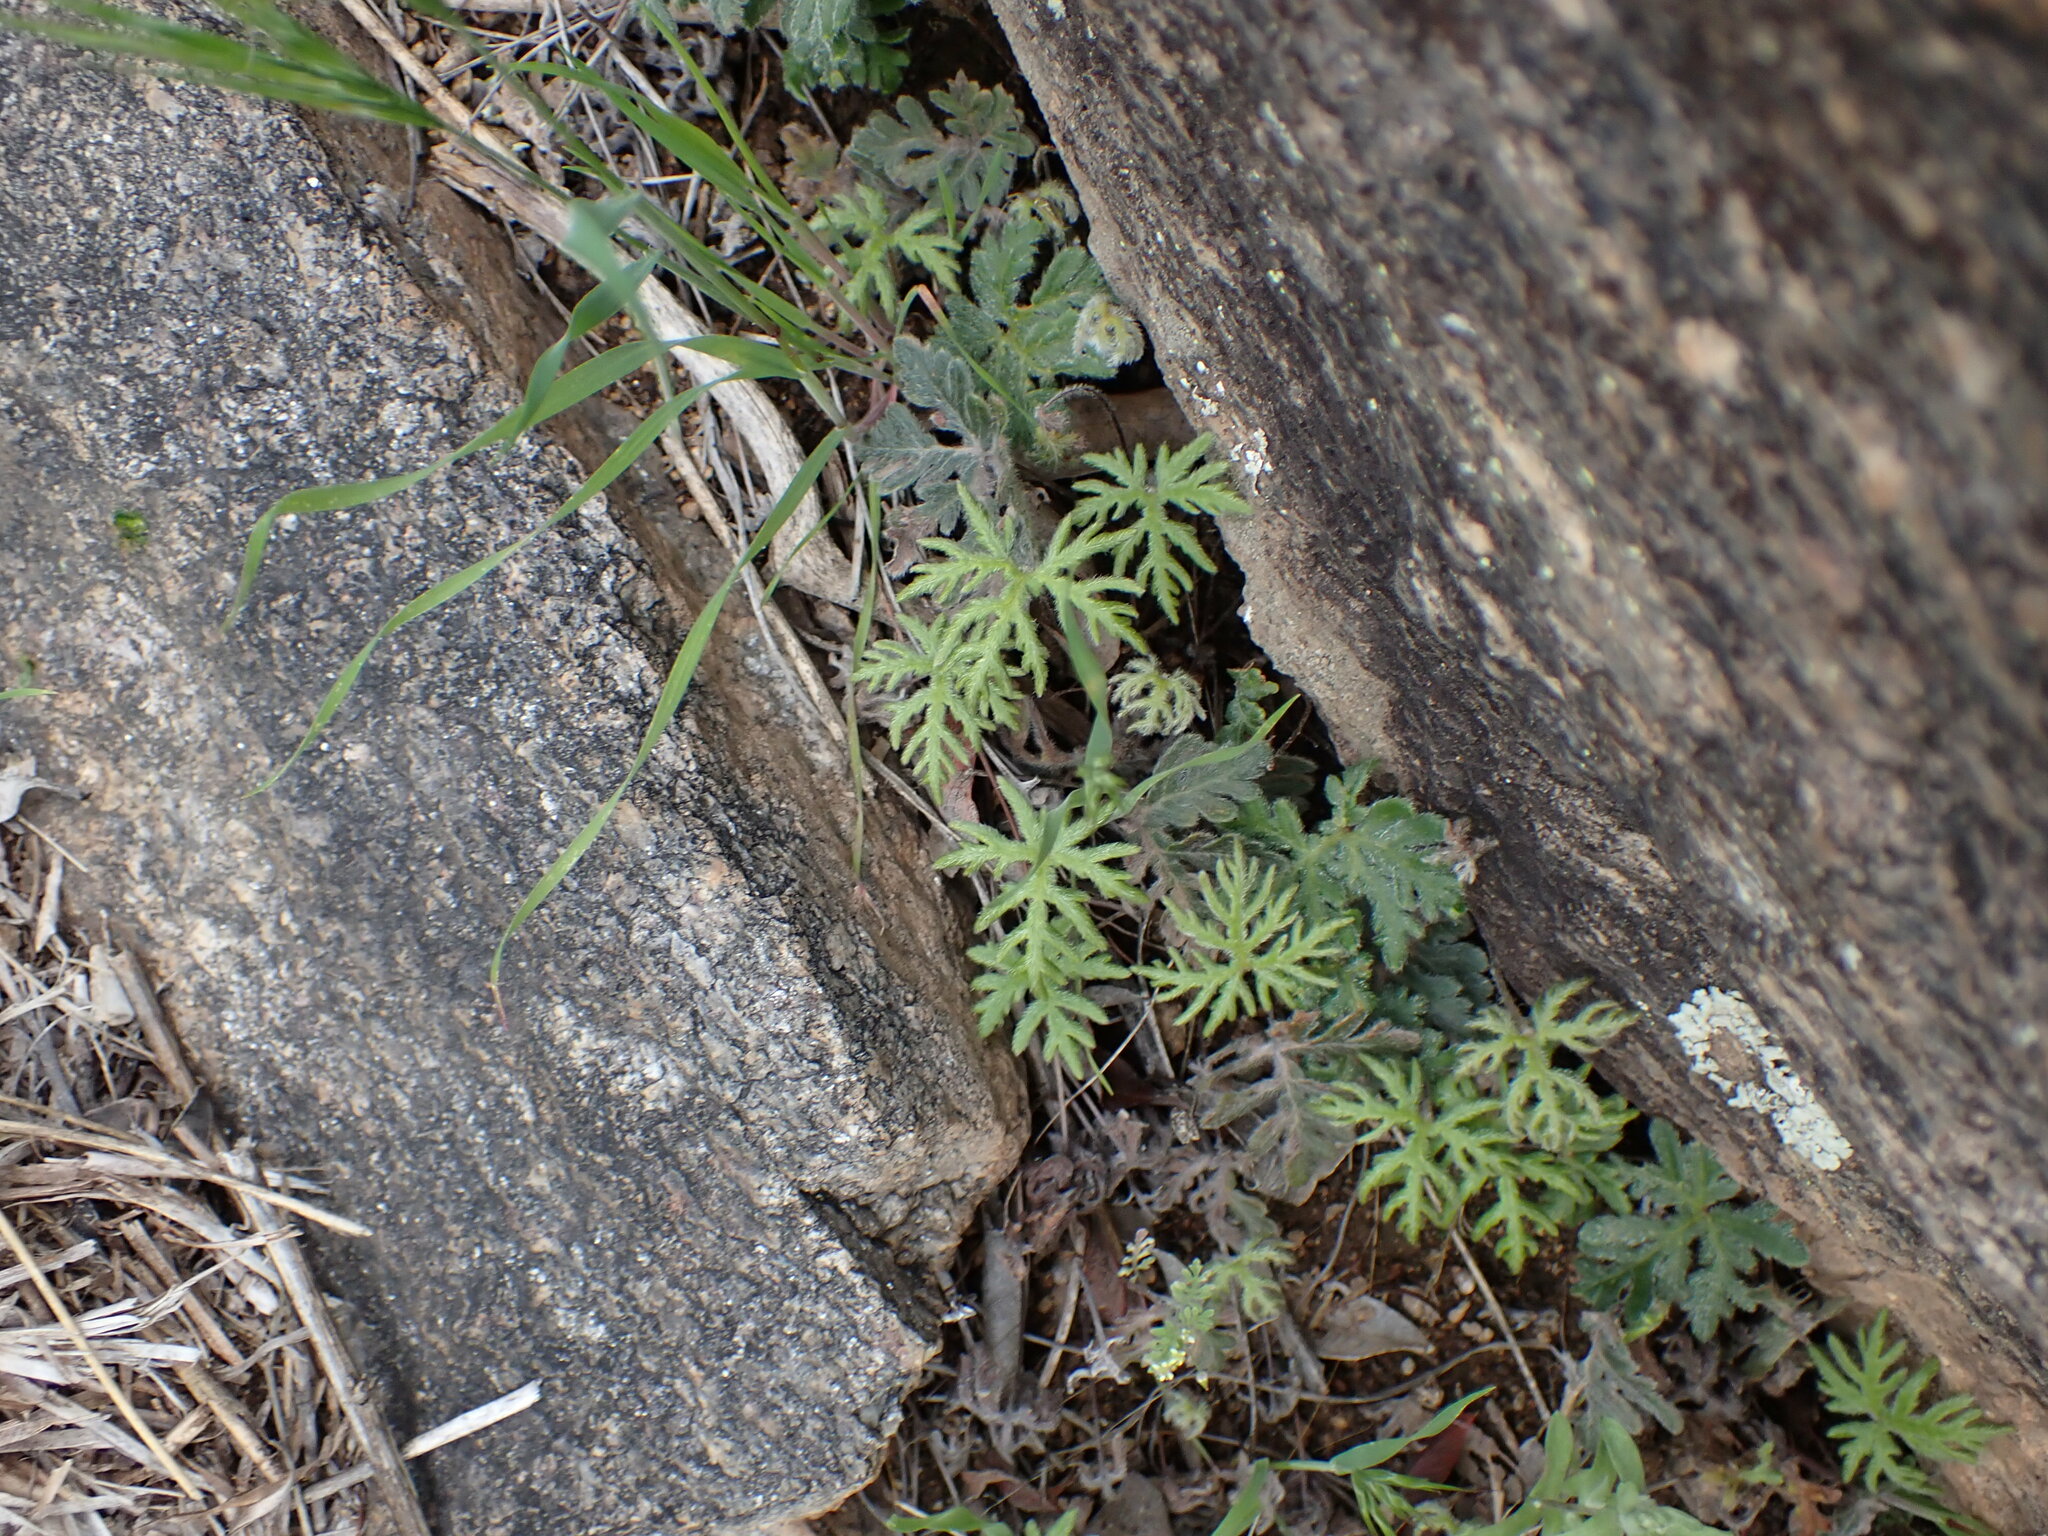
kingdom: Plantae
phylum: Tracheophyta
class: Polypodiopsida
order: Polypodiales
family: Pteridaceae
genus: Bommeria
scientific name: Bommeria hispida
